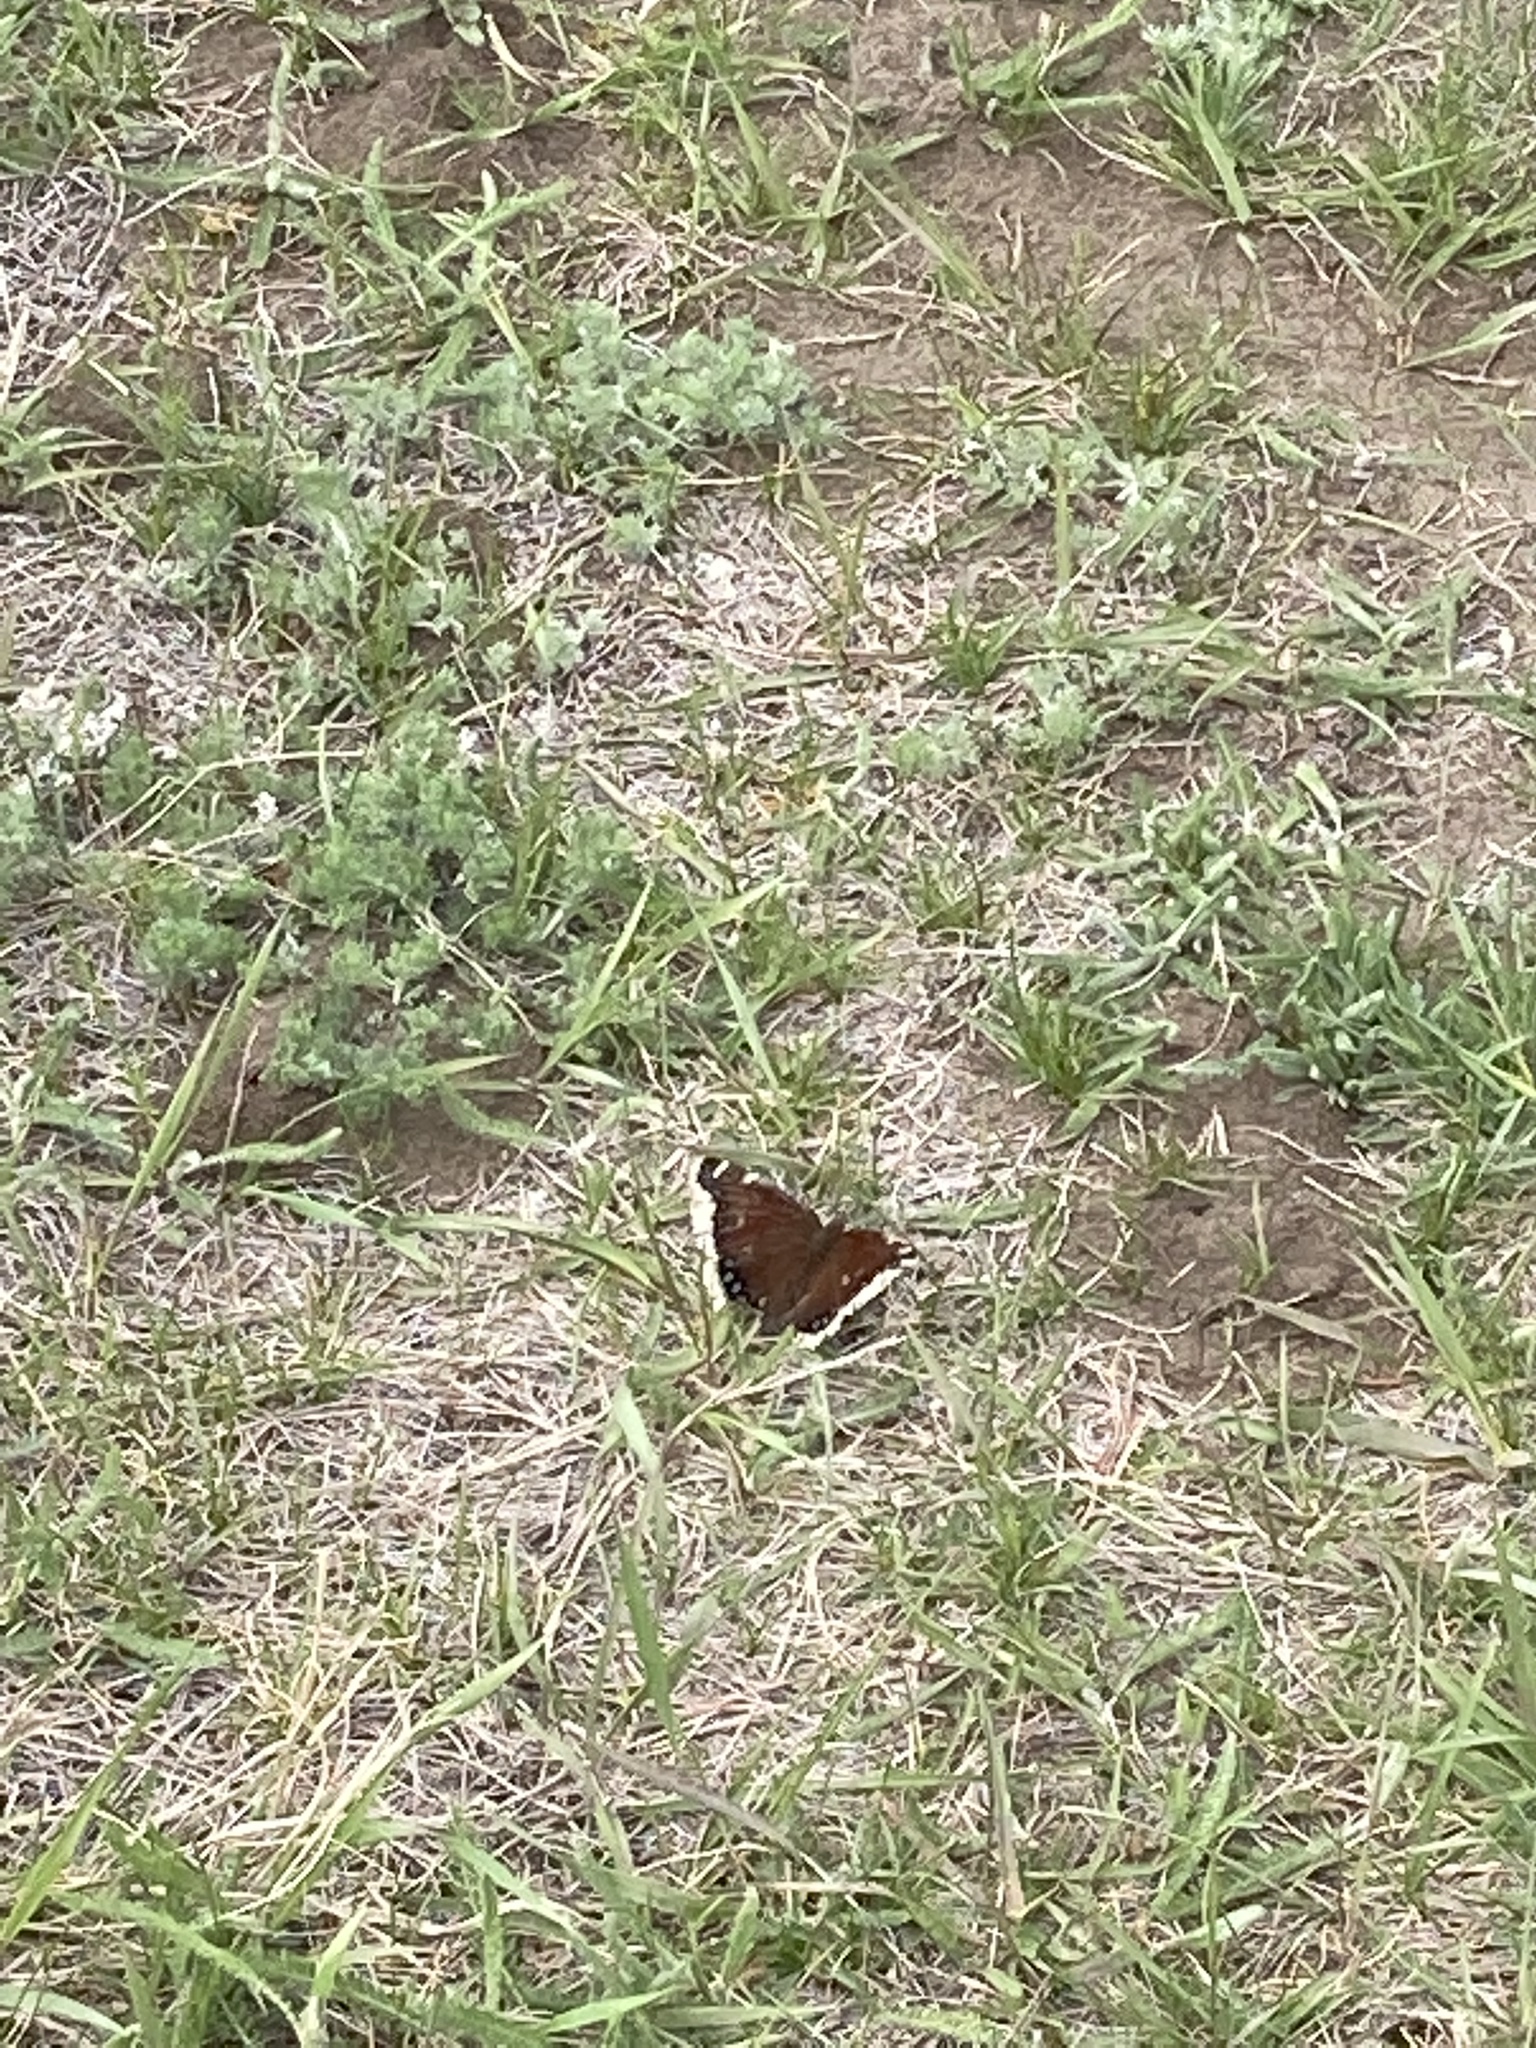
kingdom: Animalia
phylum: Arthropoda
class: Insecta
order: Lepidoptera
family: Nymphalidae
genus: Nymphalis
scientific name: Nymphalis antiopa
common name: Camberwell beauty
